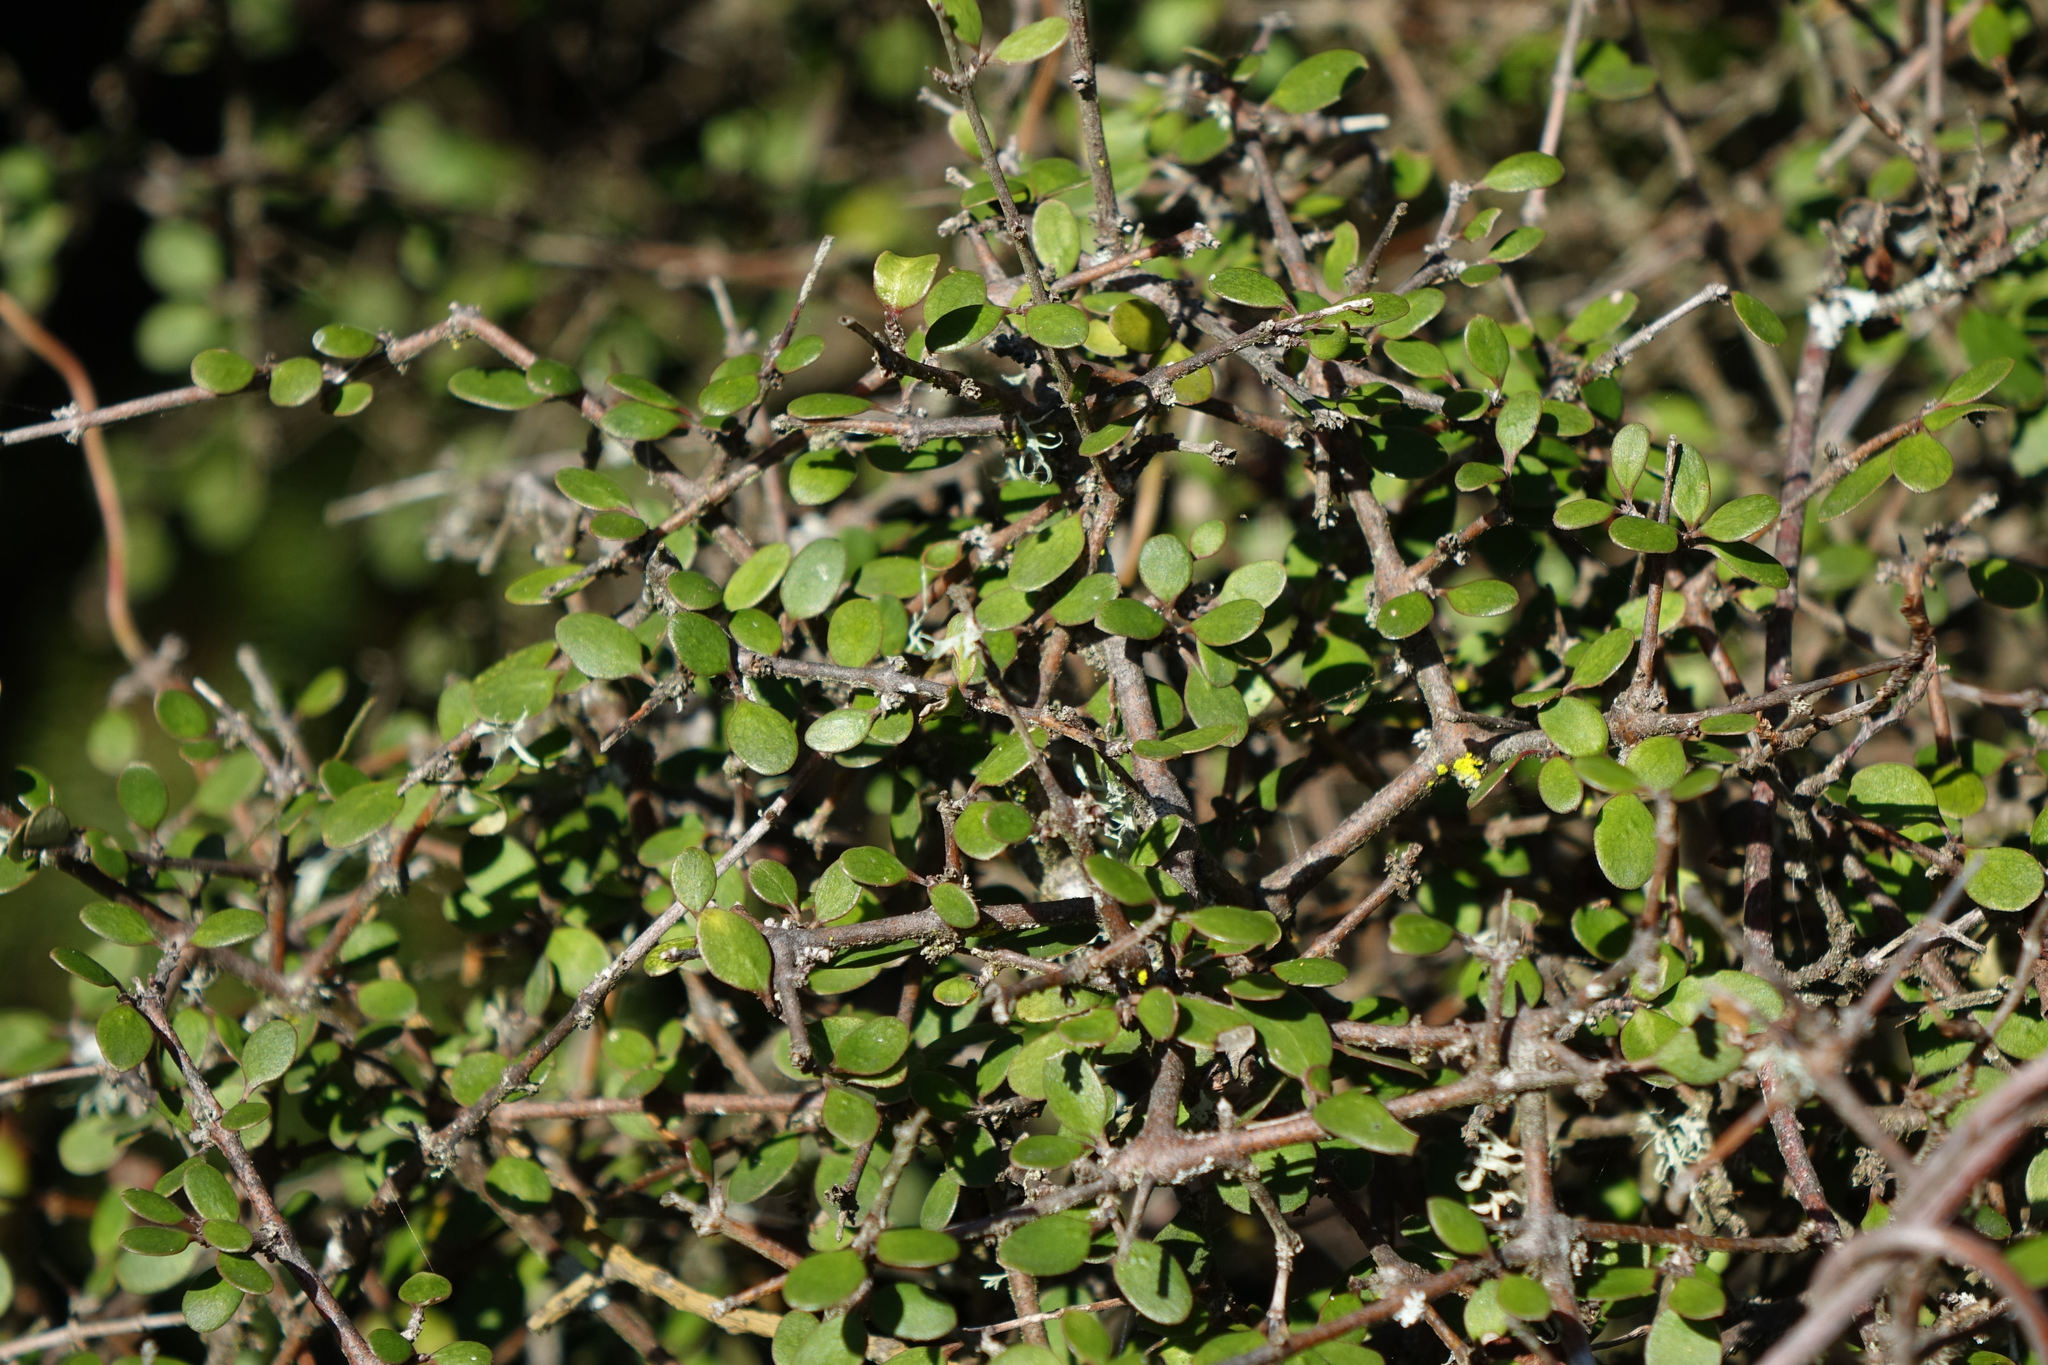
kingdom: Plantae
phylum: Tracheophyta
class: Magnoliopsida
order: Gentianales
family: Rubiaceae
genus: Coprosma
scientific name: Coprosma crassifolia
